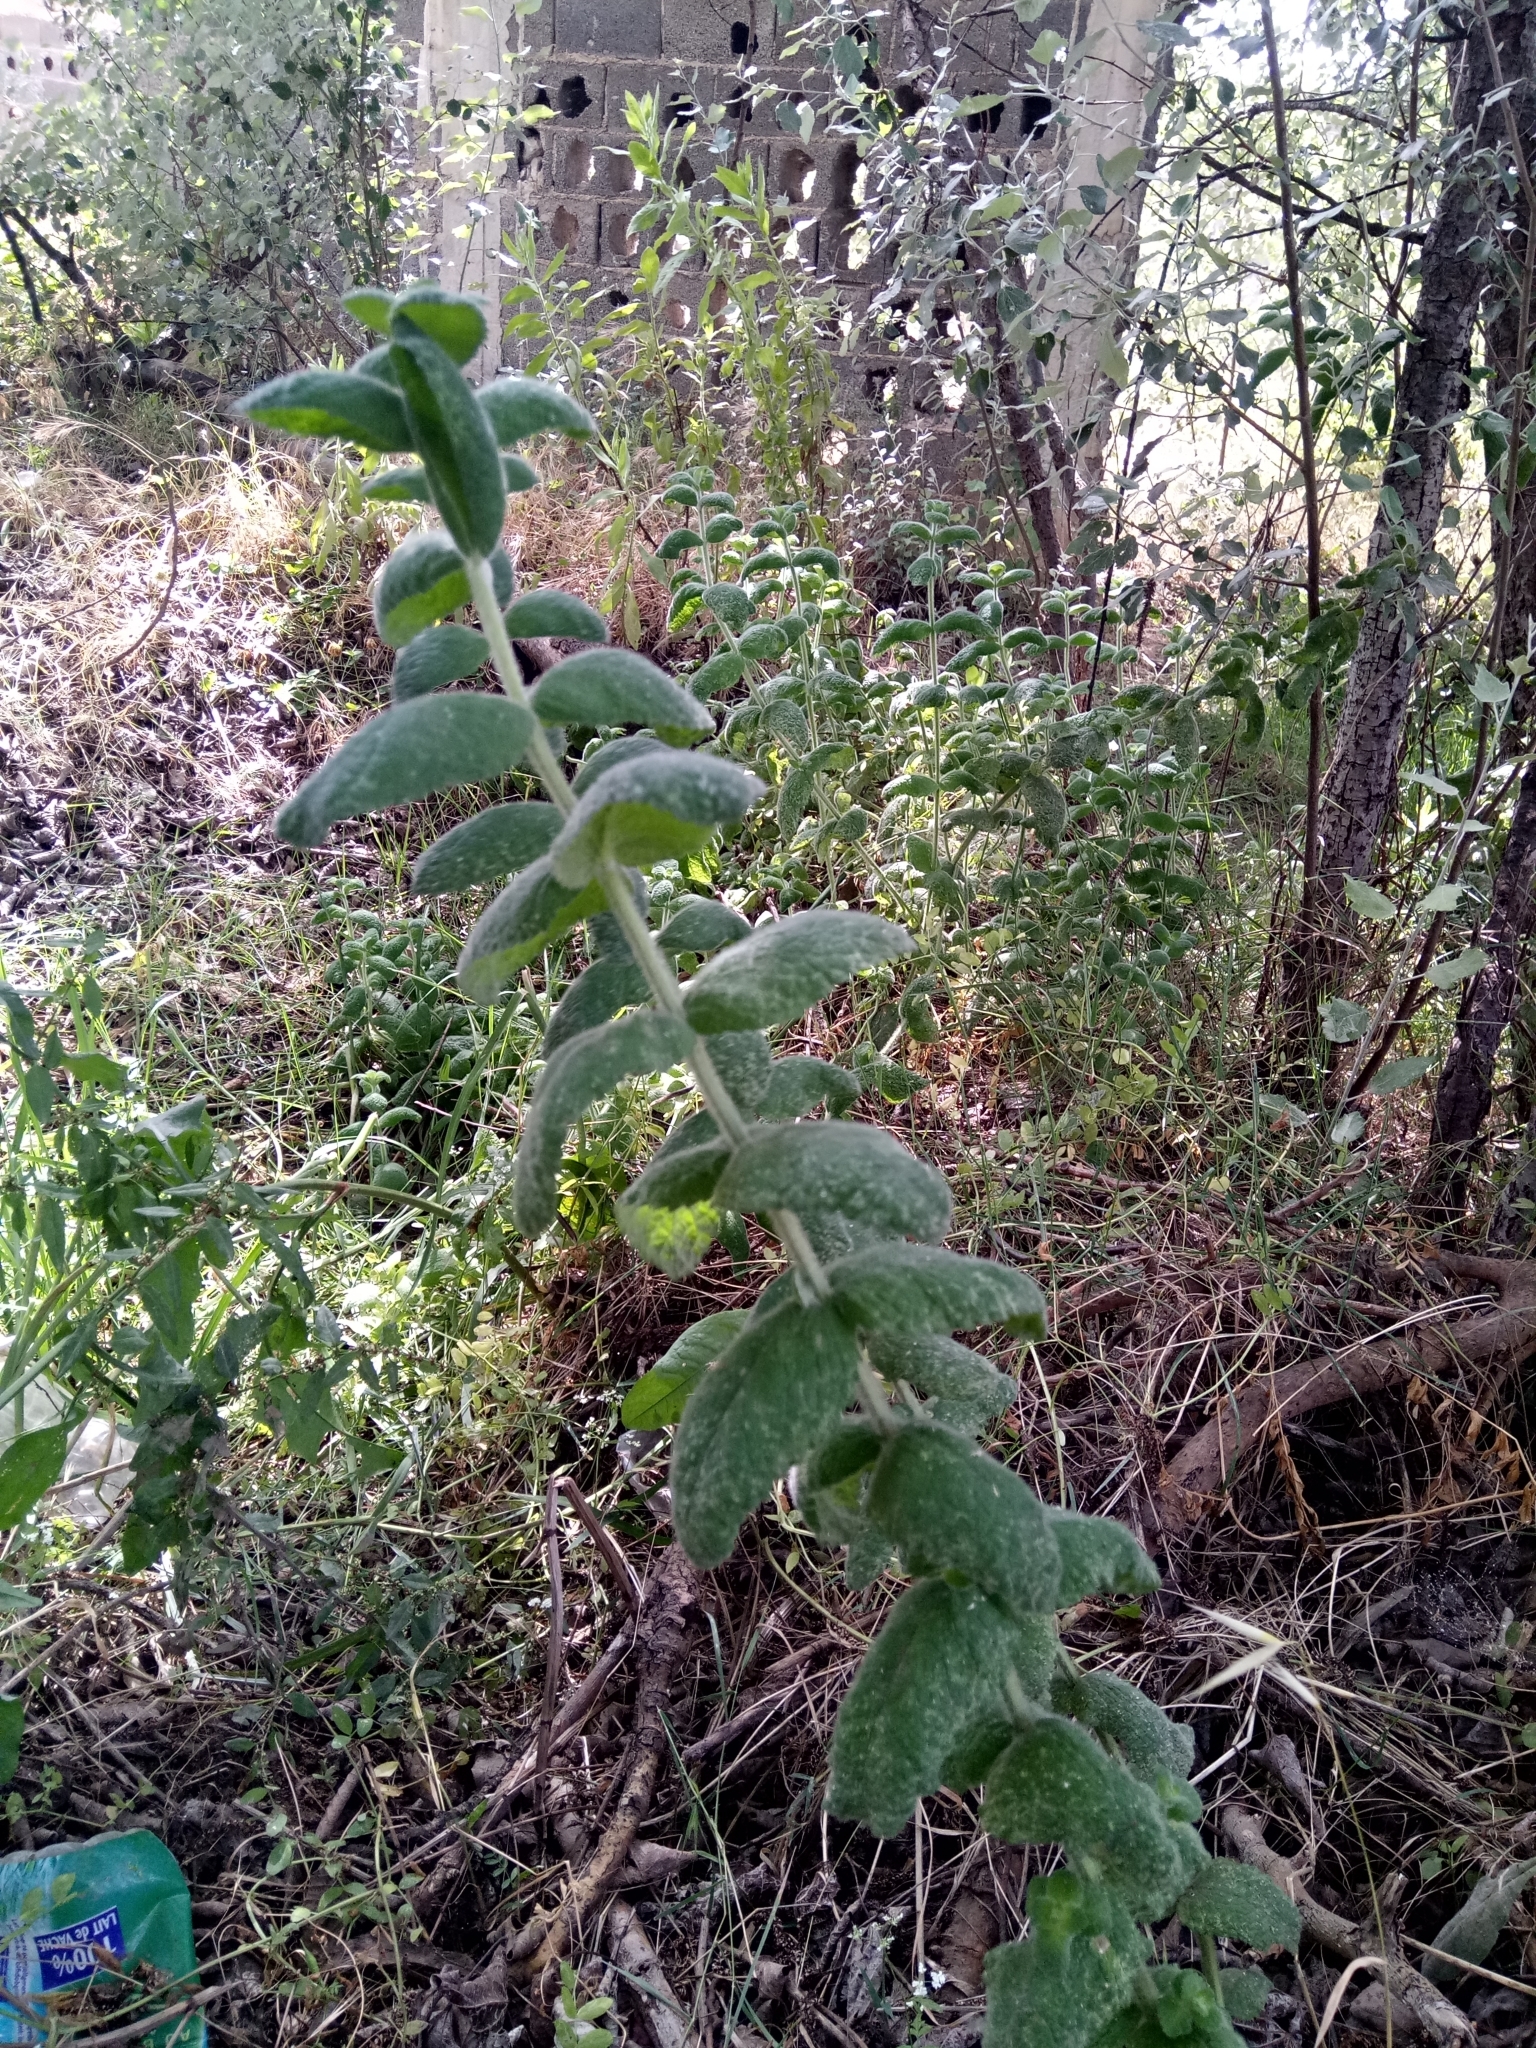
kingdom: Plantae
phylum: Tracheophyta
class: Magnoliopsida
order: Lamiales
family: Lamiaceae
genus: Mentha
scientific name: Mentha suaveolens
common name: Apple mint
